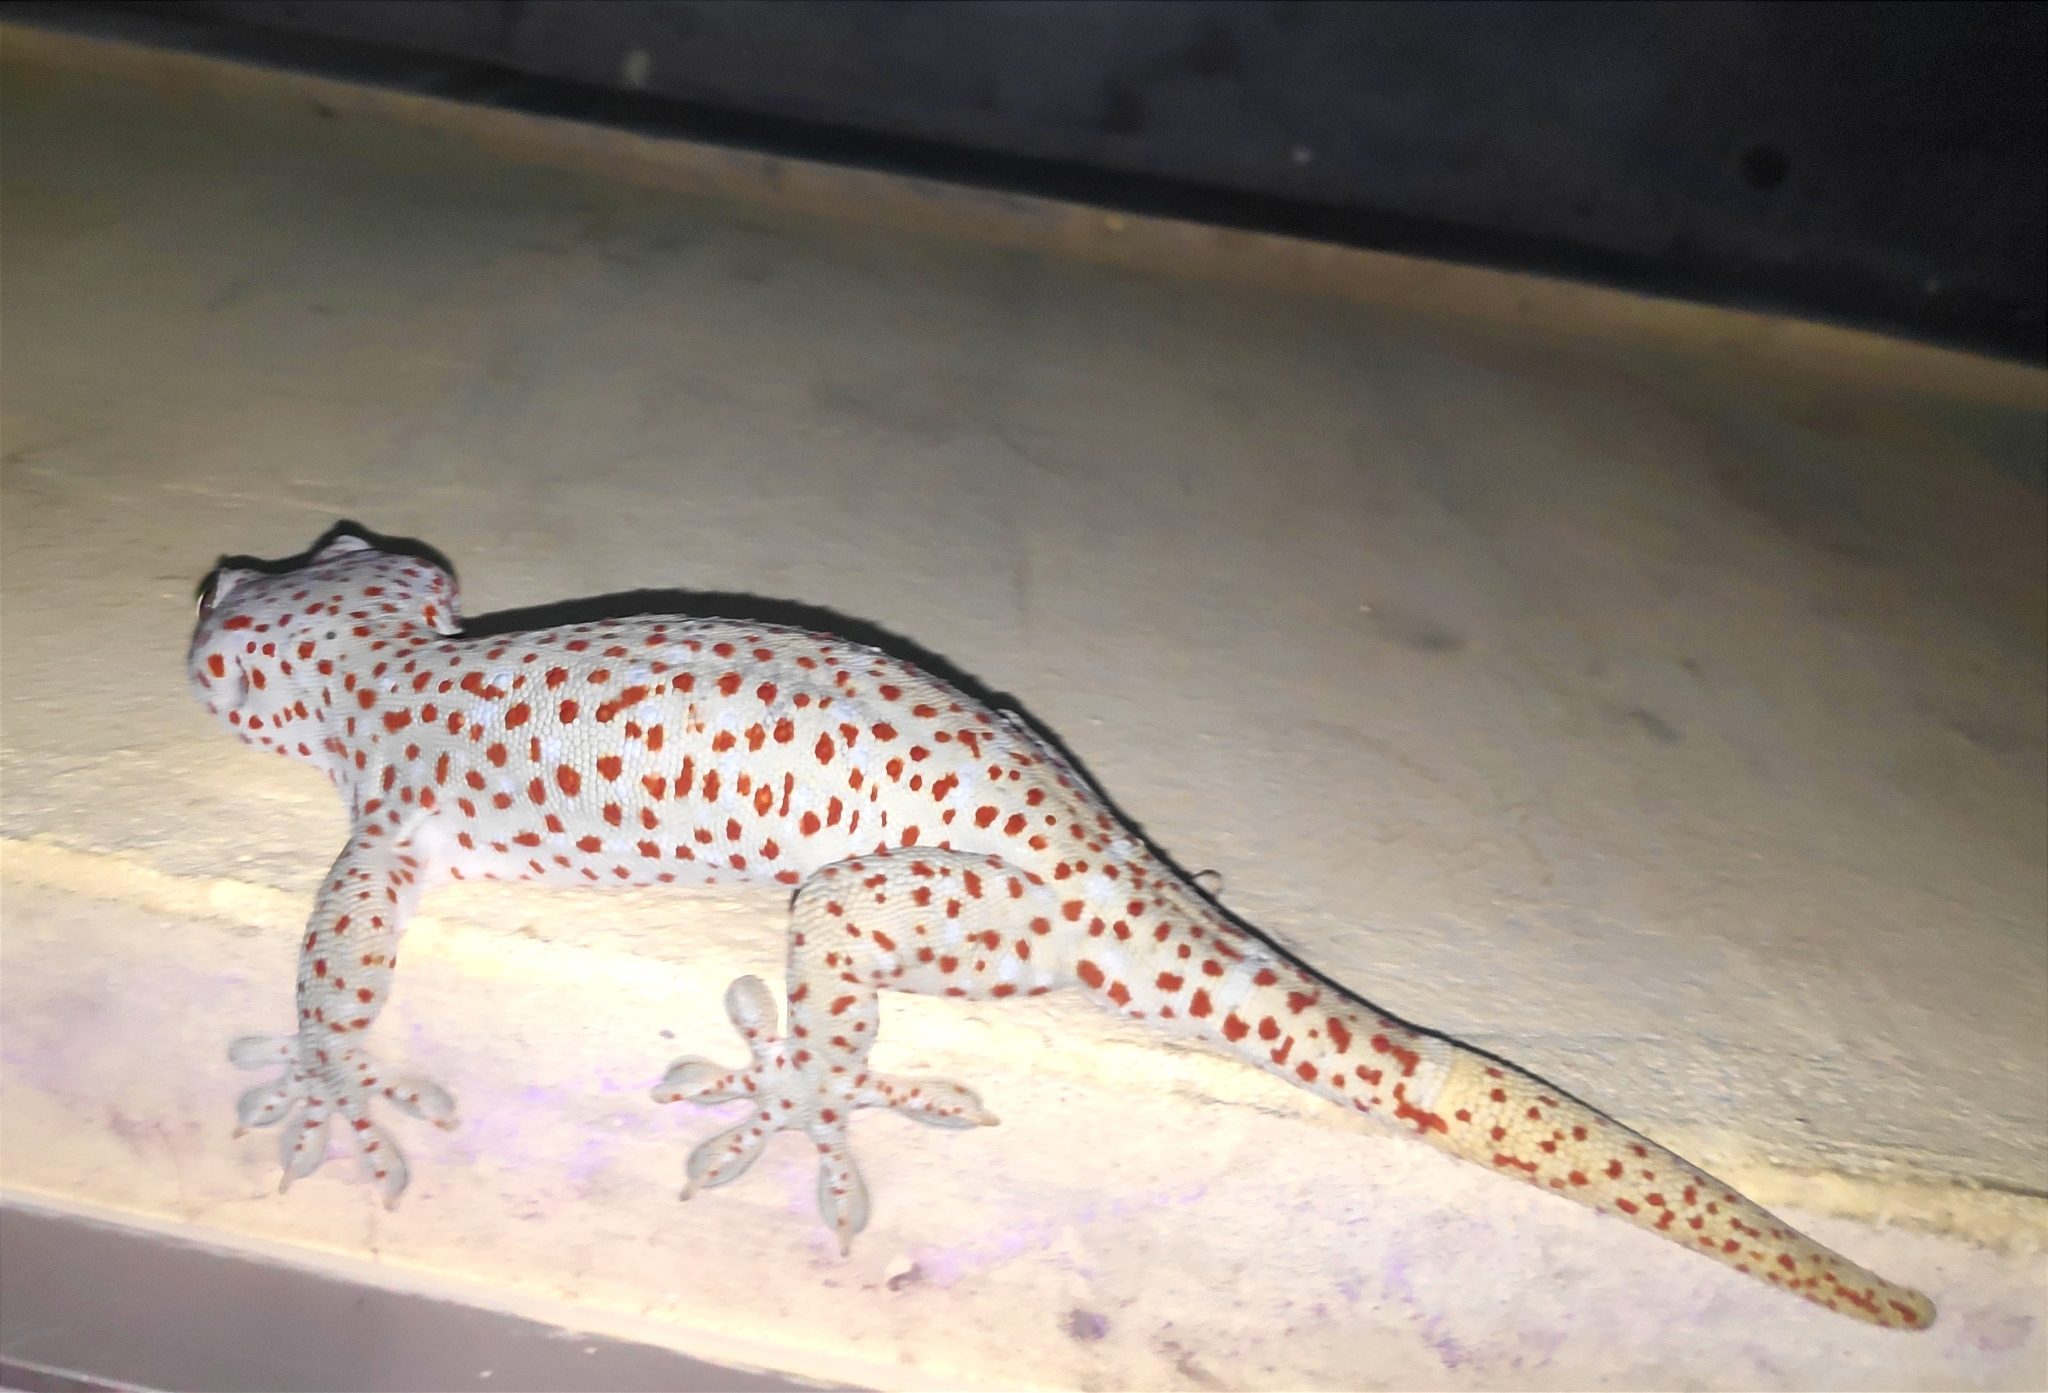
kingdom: Animalia
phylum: Chordata
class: Squamata
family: Gekkonidae
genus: Gekko
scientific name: Gekko gecko
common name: Tokay gecko
